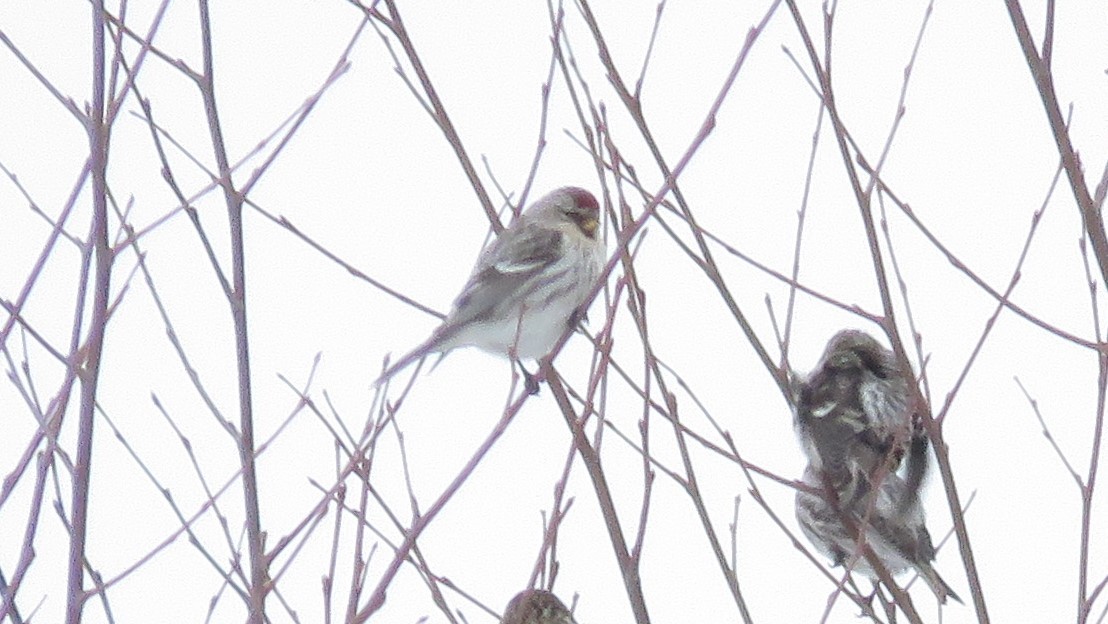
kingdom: Animalia
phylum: Chordata
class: Aves
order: Passeriformes
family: Fringillidae
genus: Acanthis
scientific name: Acanthis hornemanni
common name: Arctic redpoll
